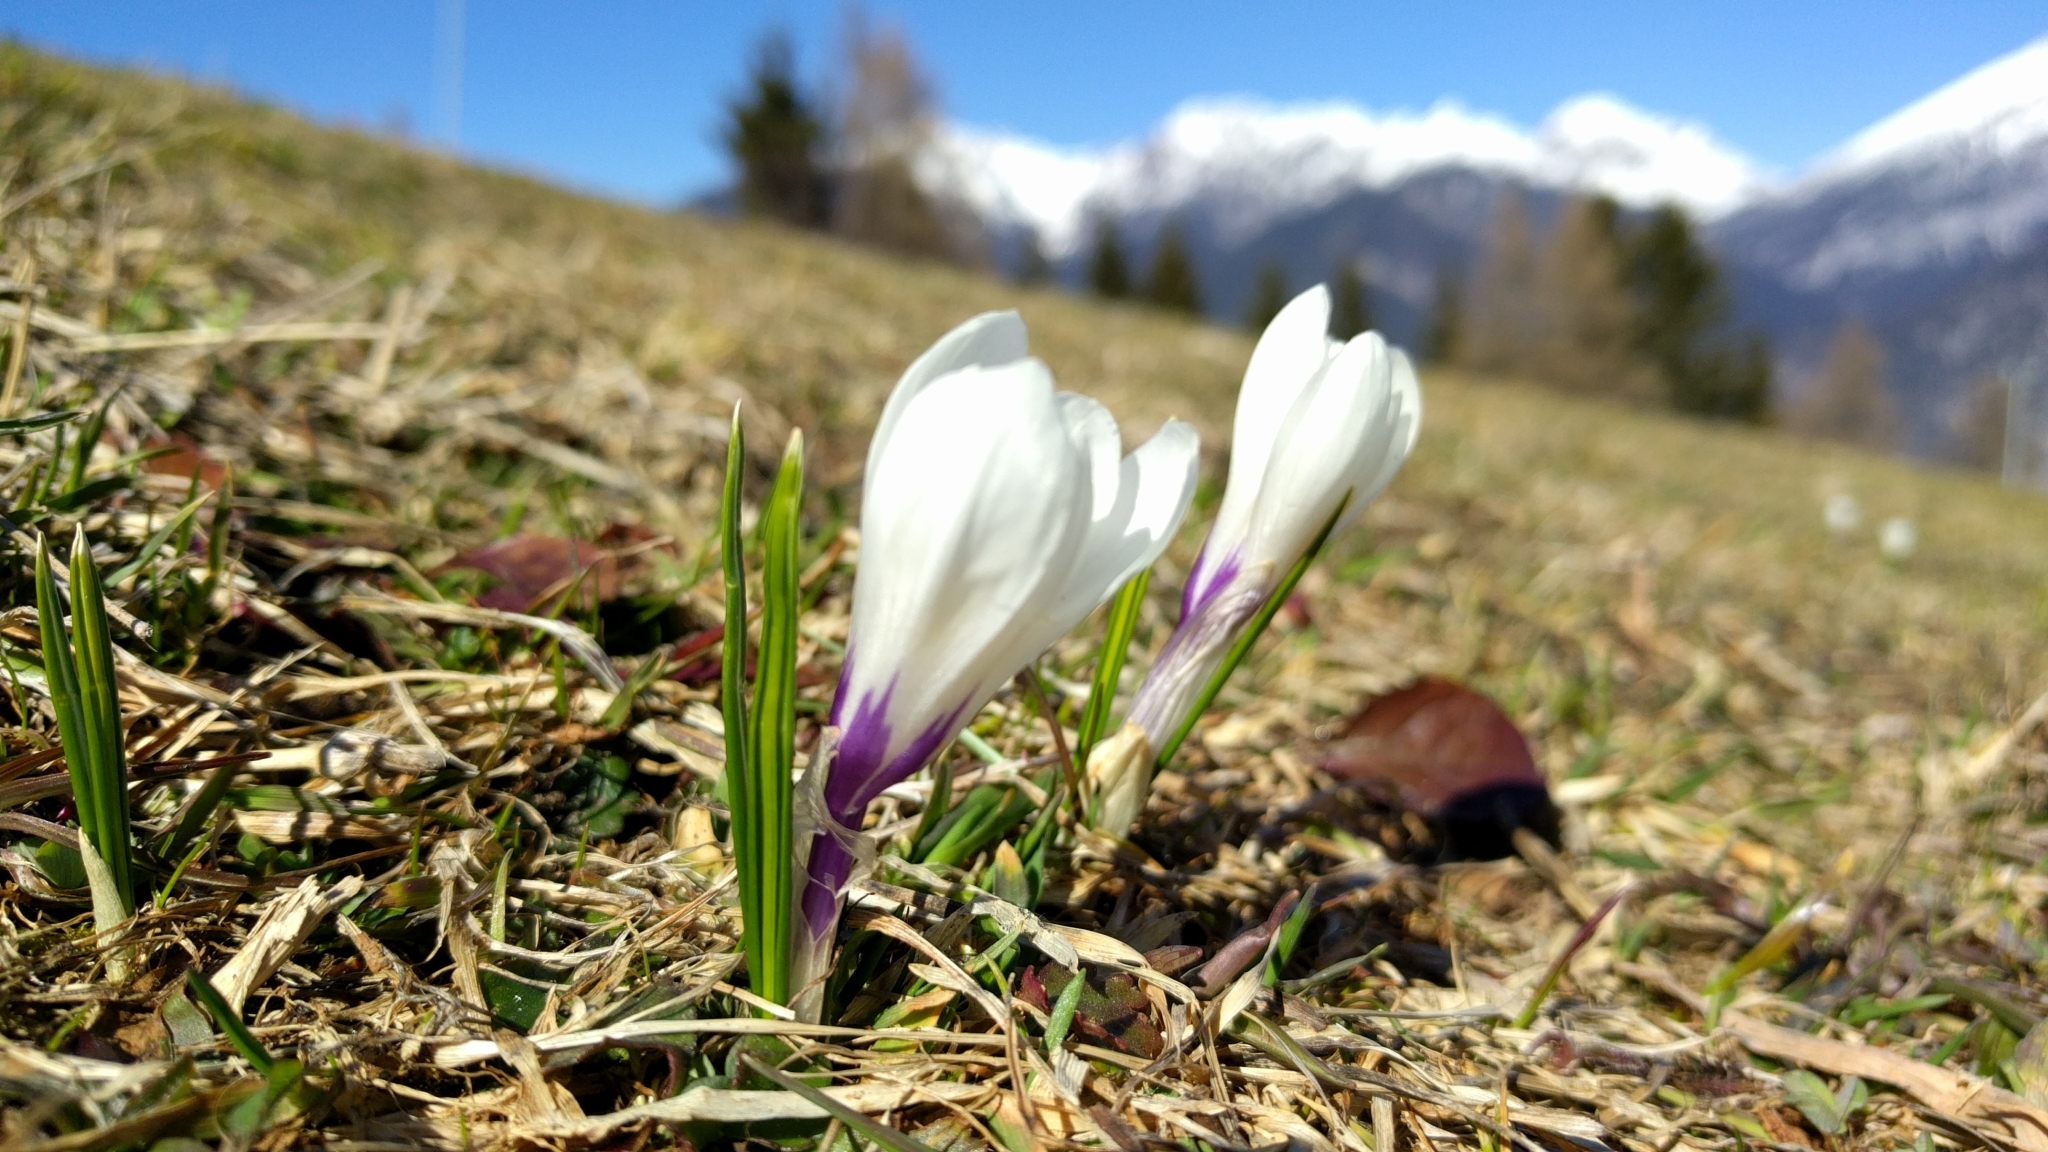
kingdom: Plantae
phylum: Tracheophyta
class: Liliopsida
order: Asparagales
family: Iridaceae
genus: Crocus
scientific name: Crocus vernus
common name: Spring crocus
